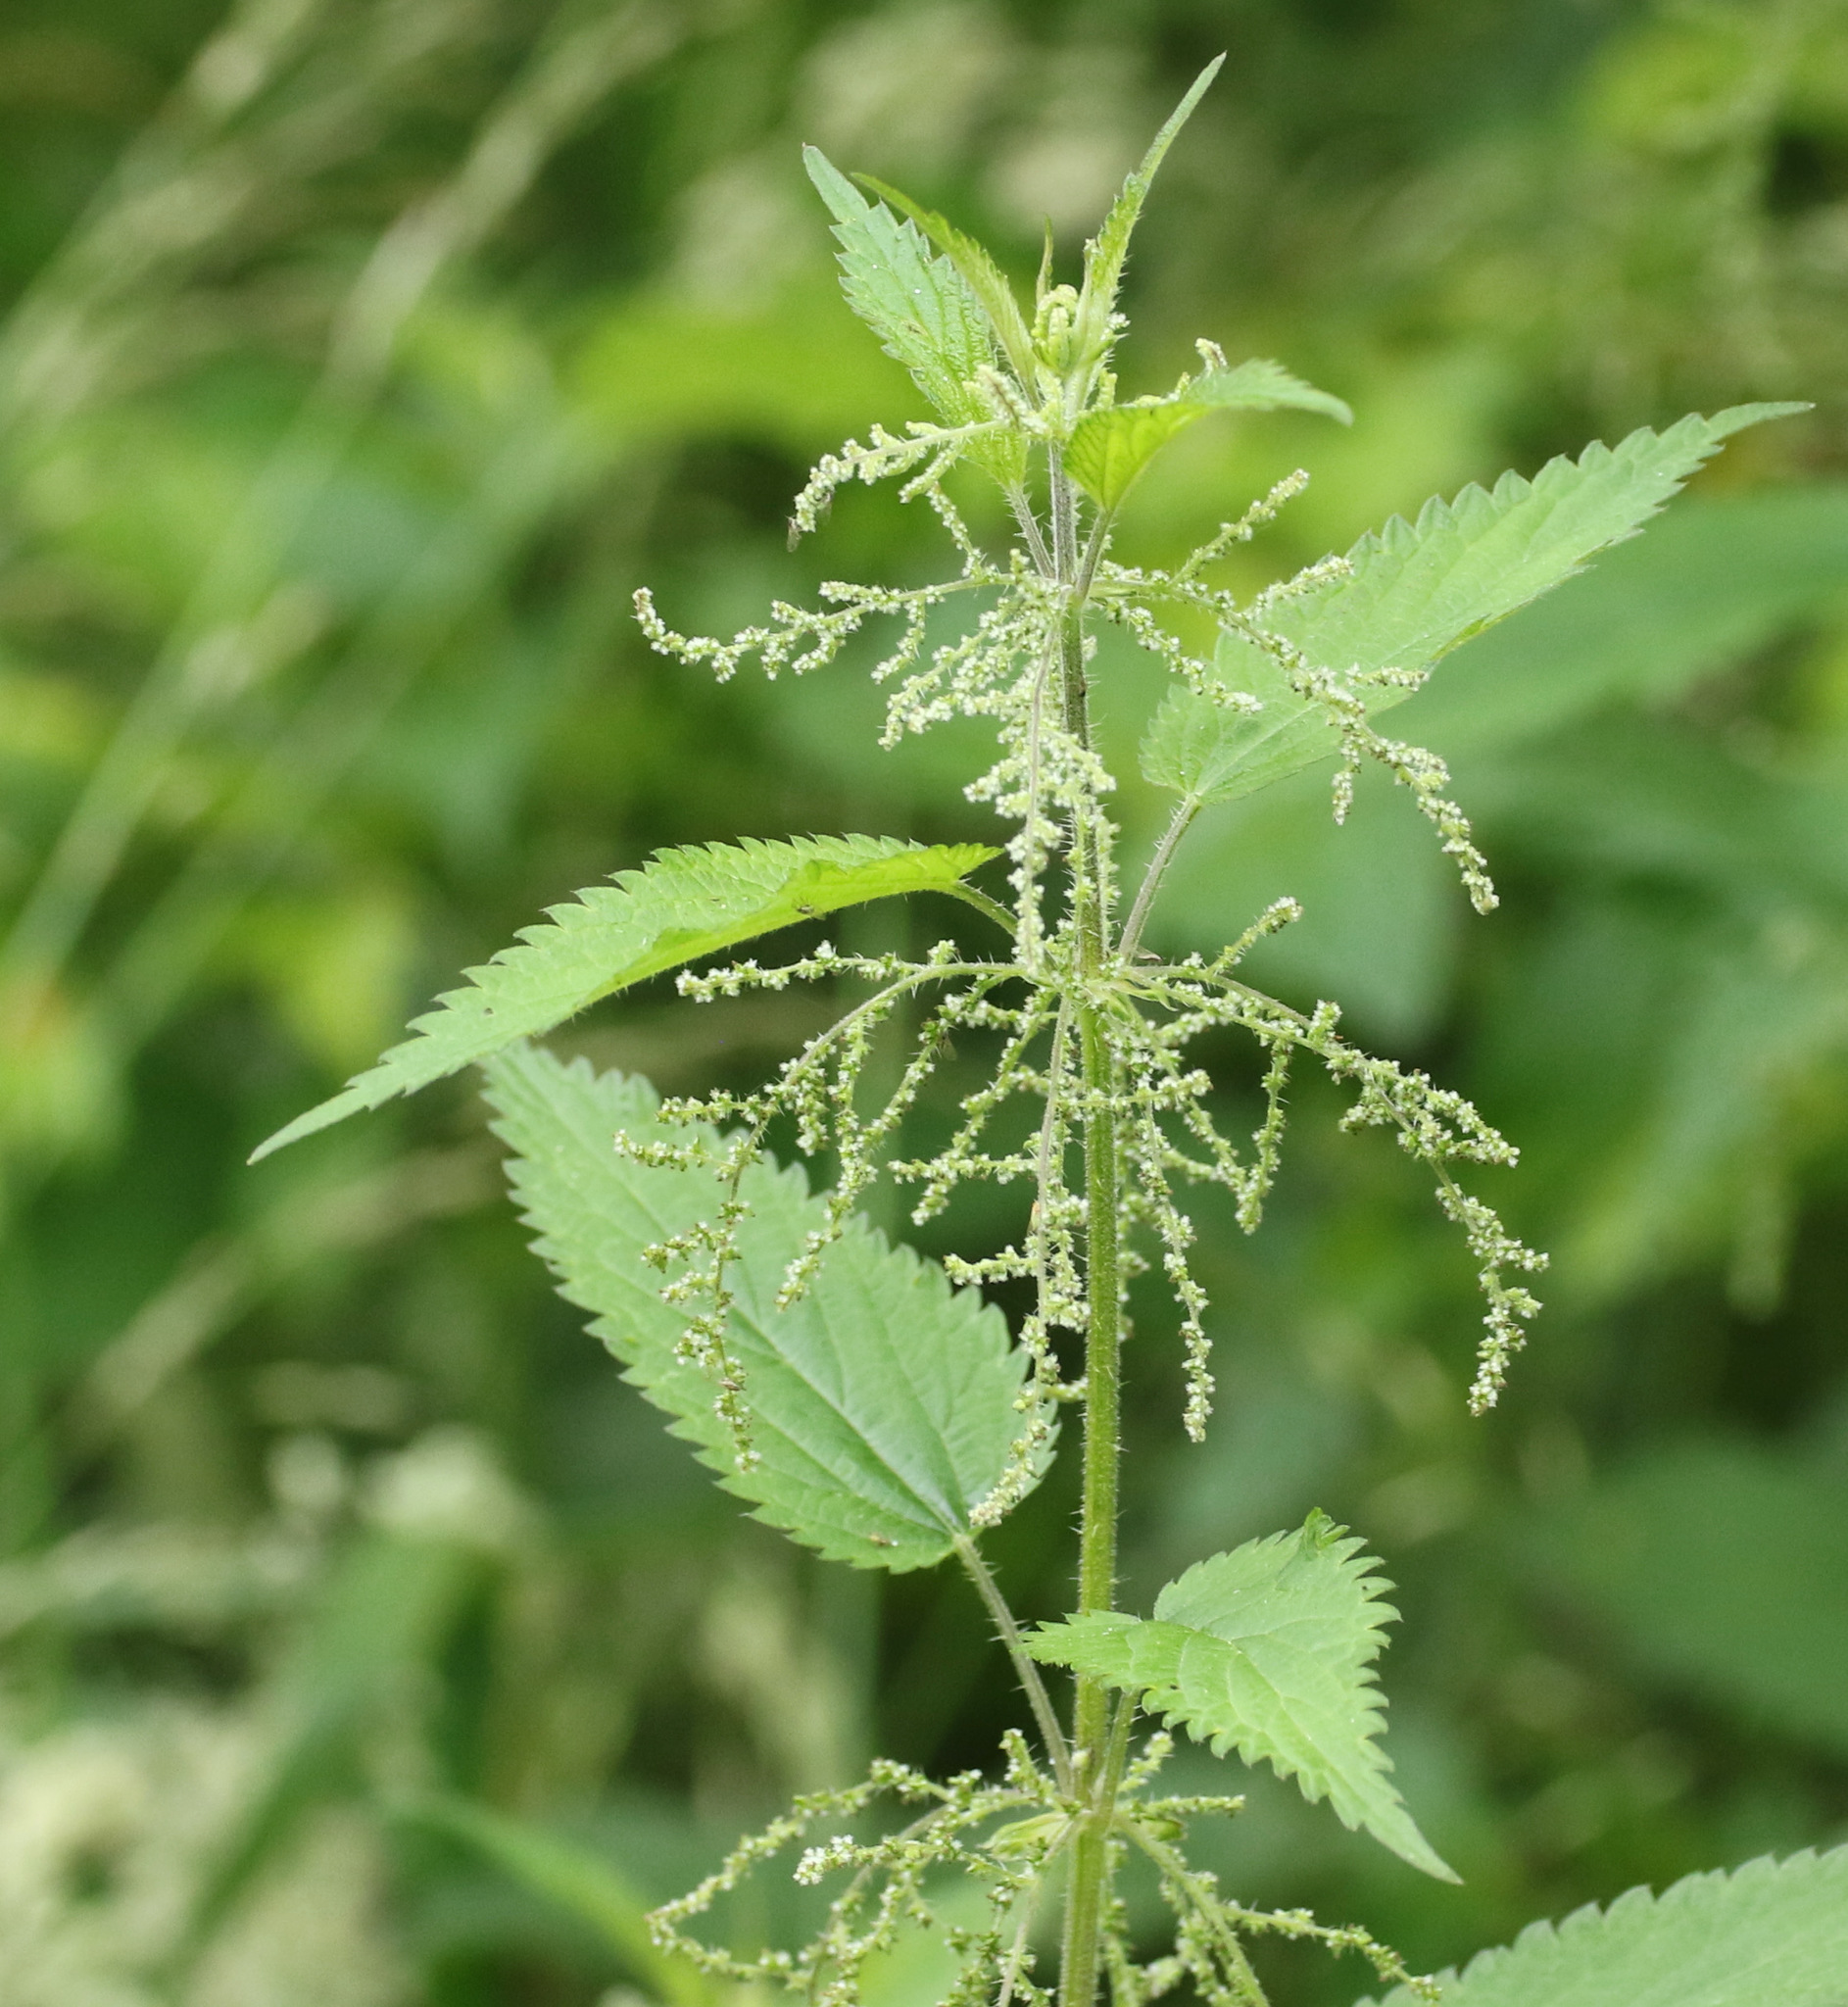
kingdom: Plantae
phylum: Tracheophyta
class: Magnoliopsida
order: Rosales
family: Urticaceae
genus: Urtica
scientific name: Urtica dioica
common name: Common nettle
